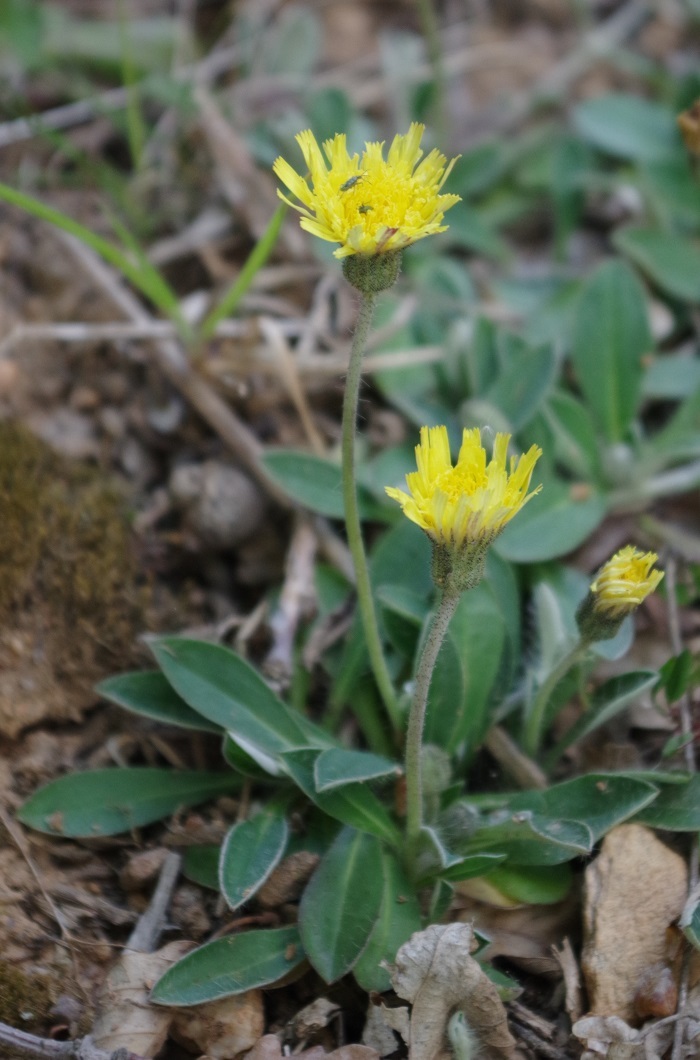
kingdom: Plantae
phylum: Tracheophyta
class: Magnoliopsida
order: Asterales
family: Asteraceae
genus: Pilosella
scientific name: Pilosella officinarum
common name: Mouse-ear hawkweed
